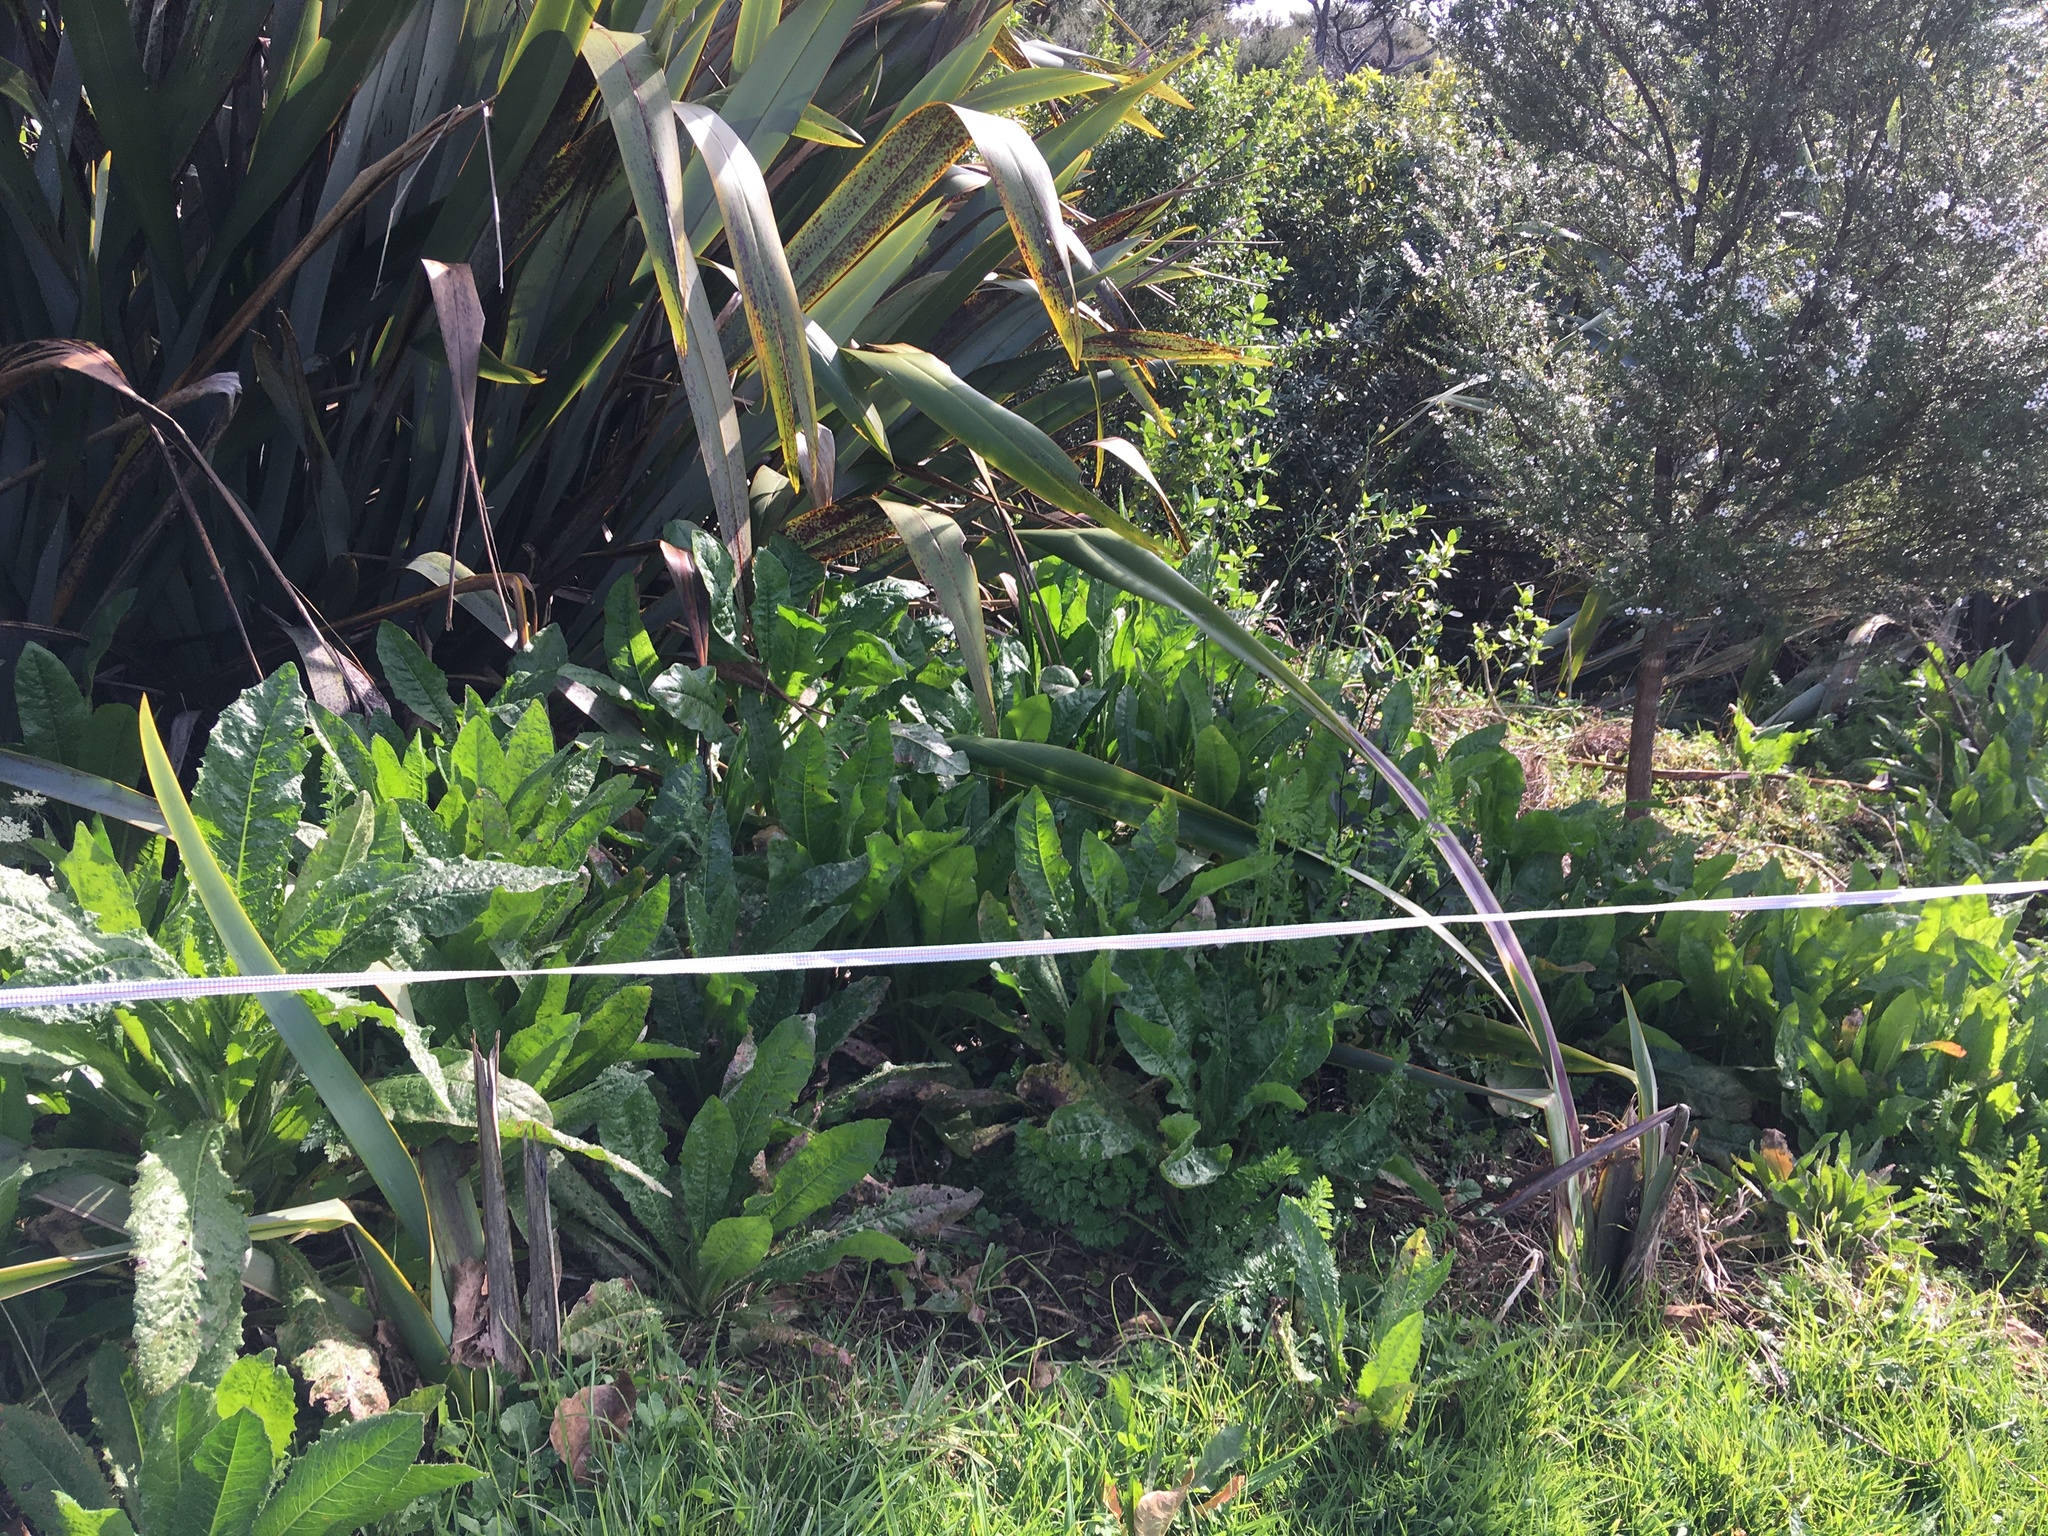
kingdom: Plantae
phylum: Tracheophyta
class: Magnoliopsida
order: Asterales
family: Asteraceae
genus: Helminthotheca
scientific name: Helminthotheca echioides
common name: Ox-tongue
